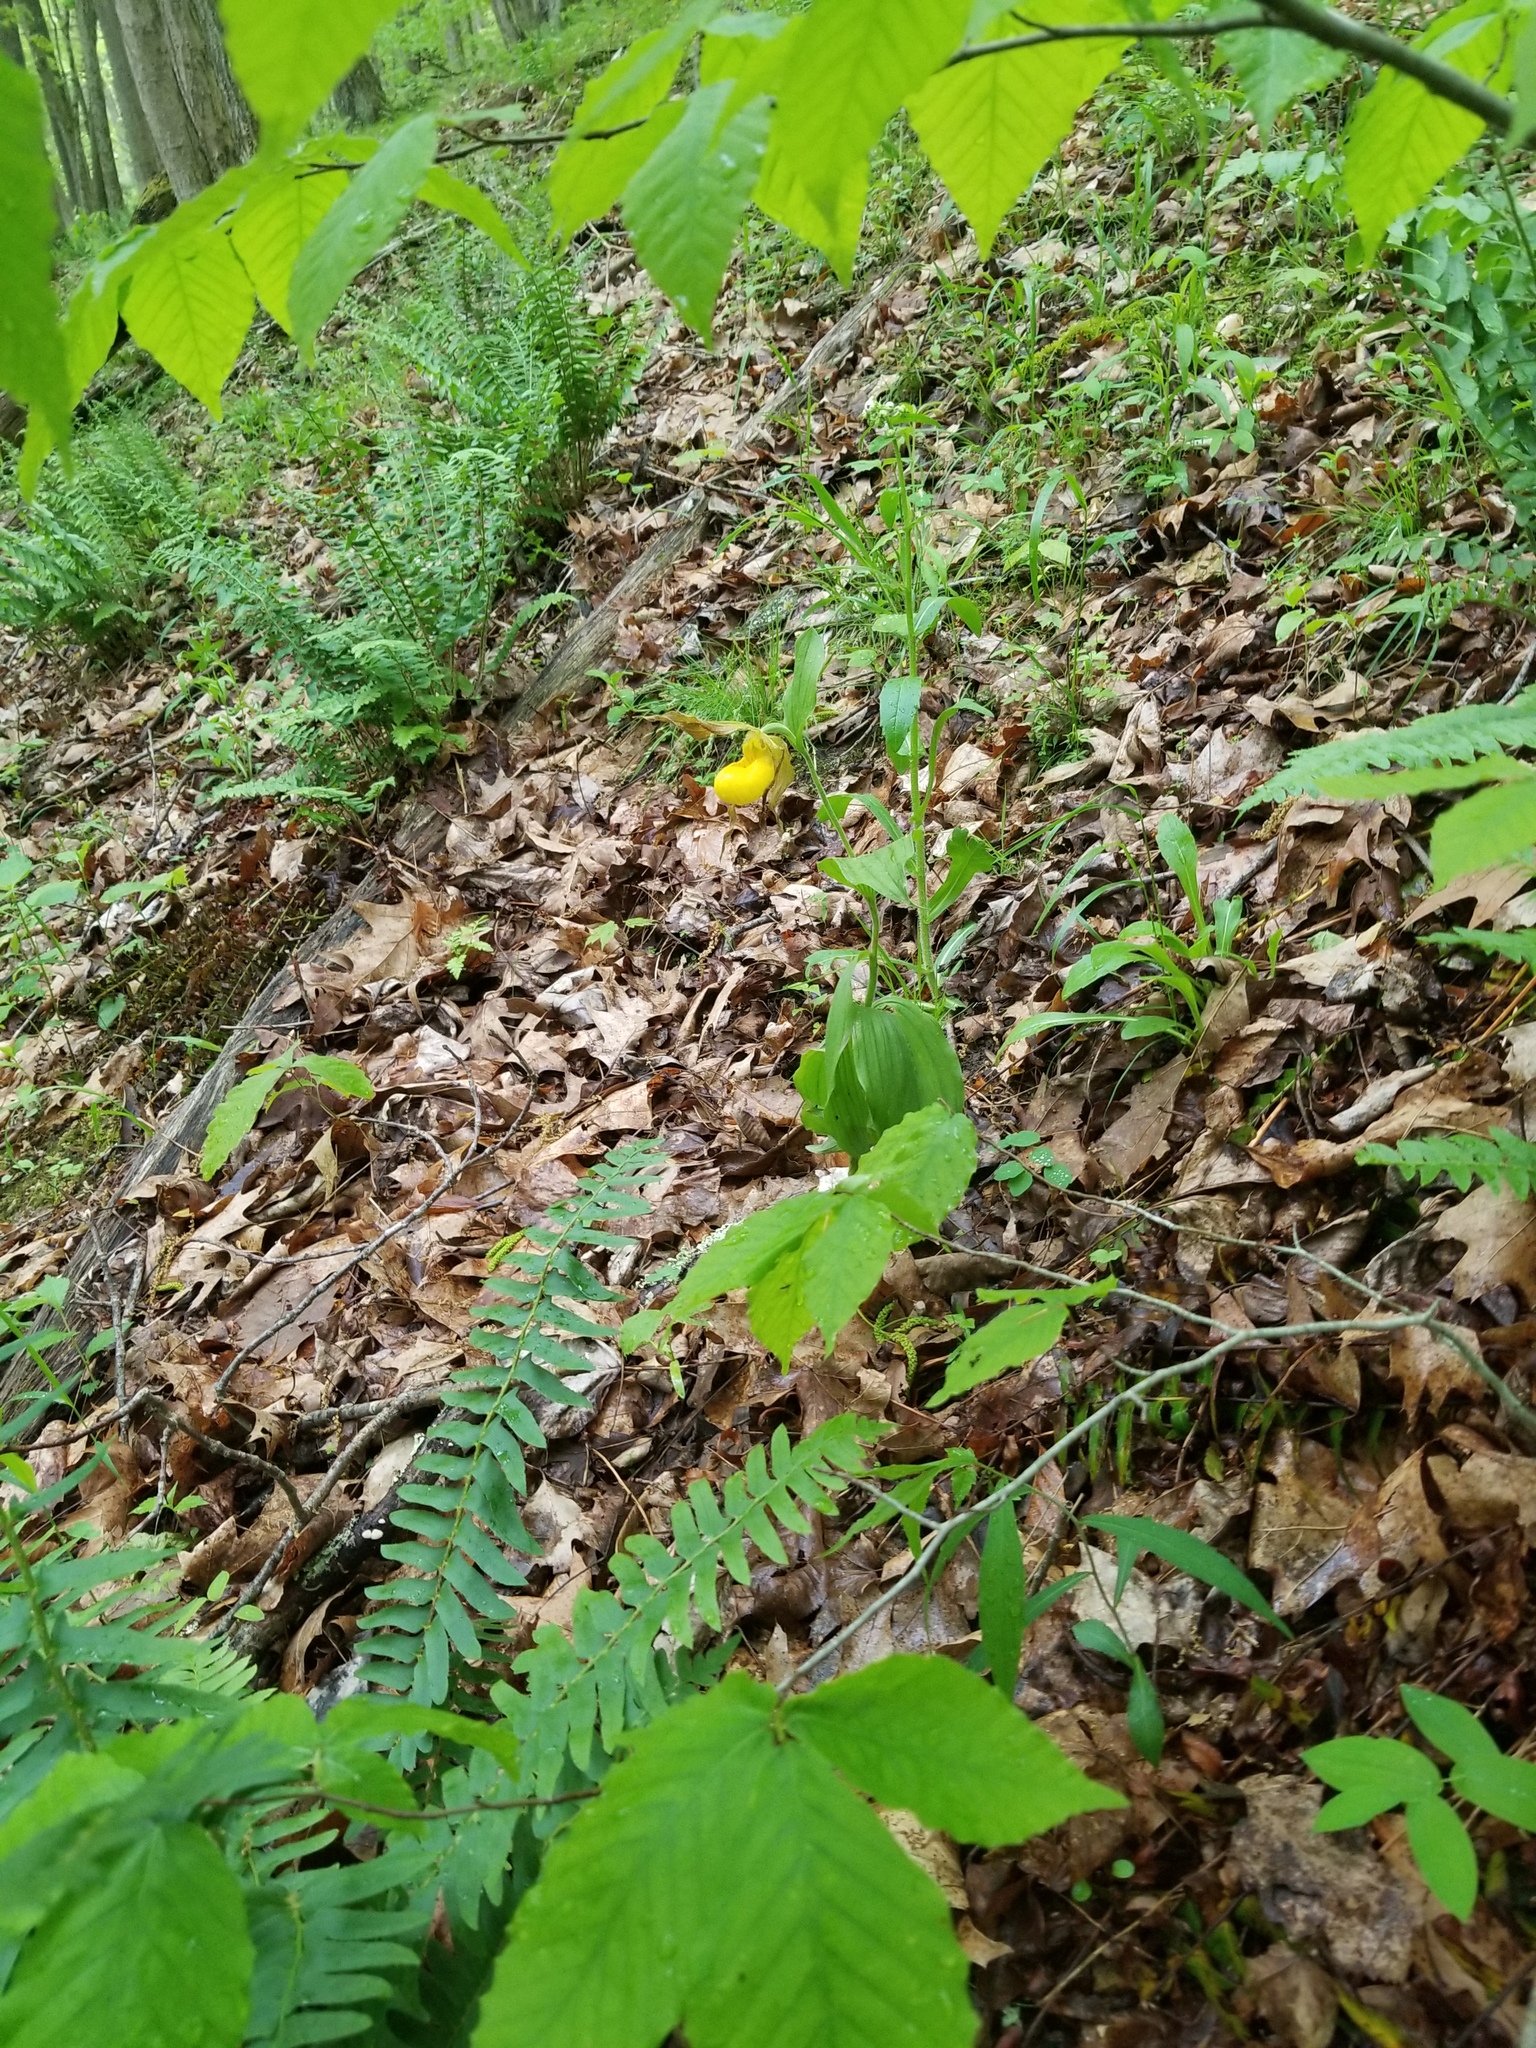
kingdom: Plantae
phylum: Tracheophyta
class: Liliopsida
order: Asparagales
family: Orchidaceae
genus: Cypripedium
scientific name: Cypripedium parviflorum
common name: American yellow lady's-slipper
